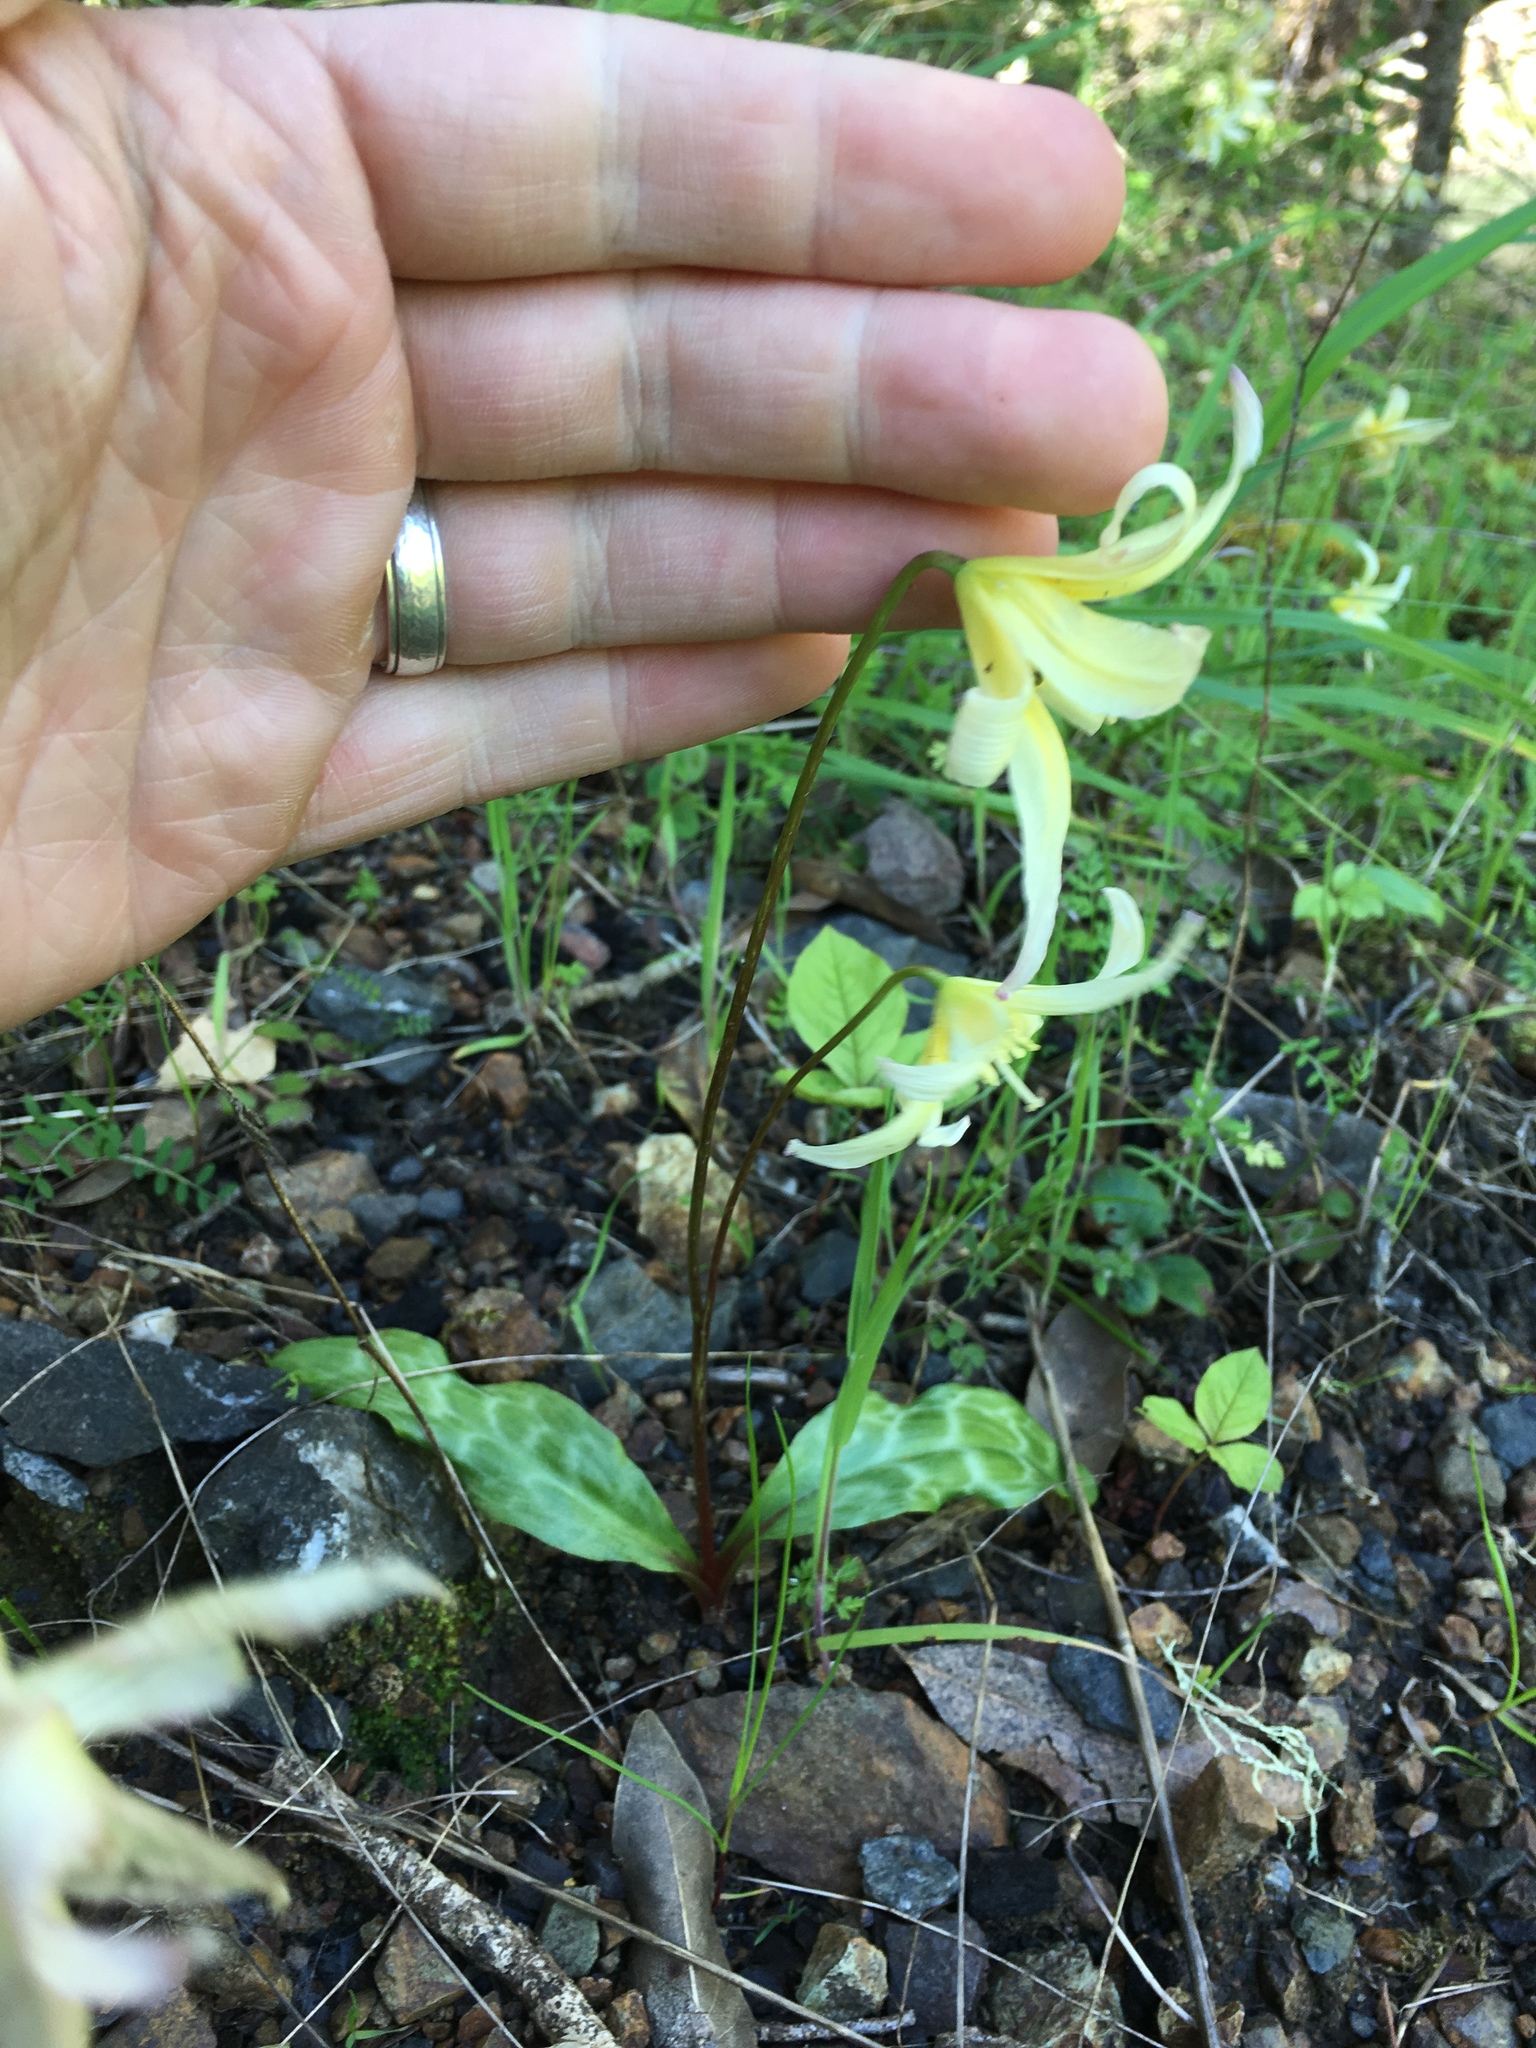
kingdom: Plantae
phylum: Tracheophyta
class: Liliopsida
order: Liliales
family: Liliaceae
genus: Erythronium
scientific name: Erythronium californicum
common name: Fawn-lily
